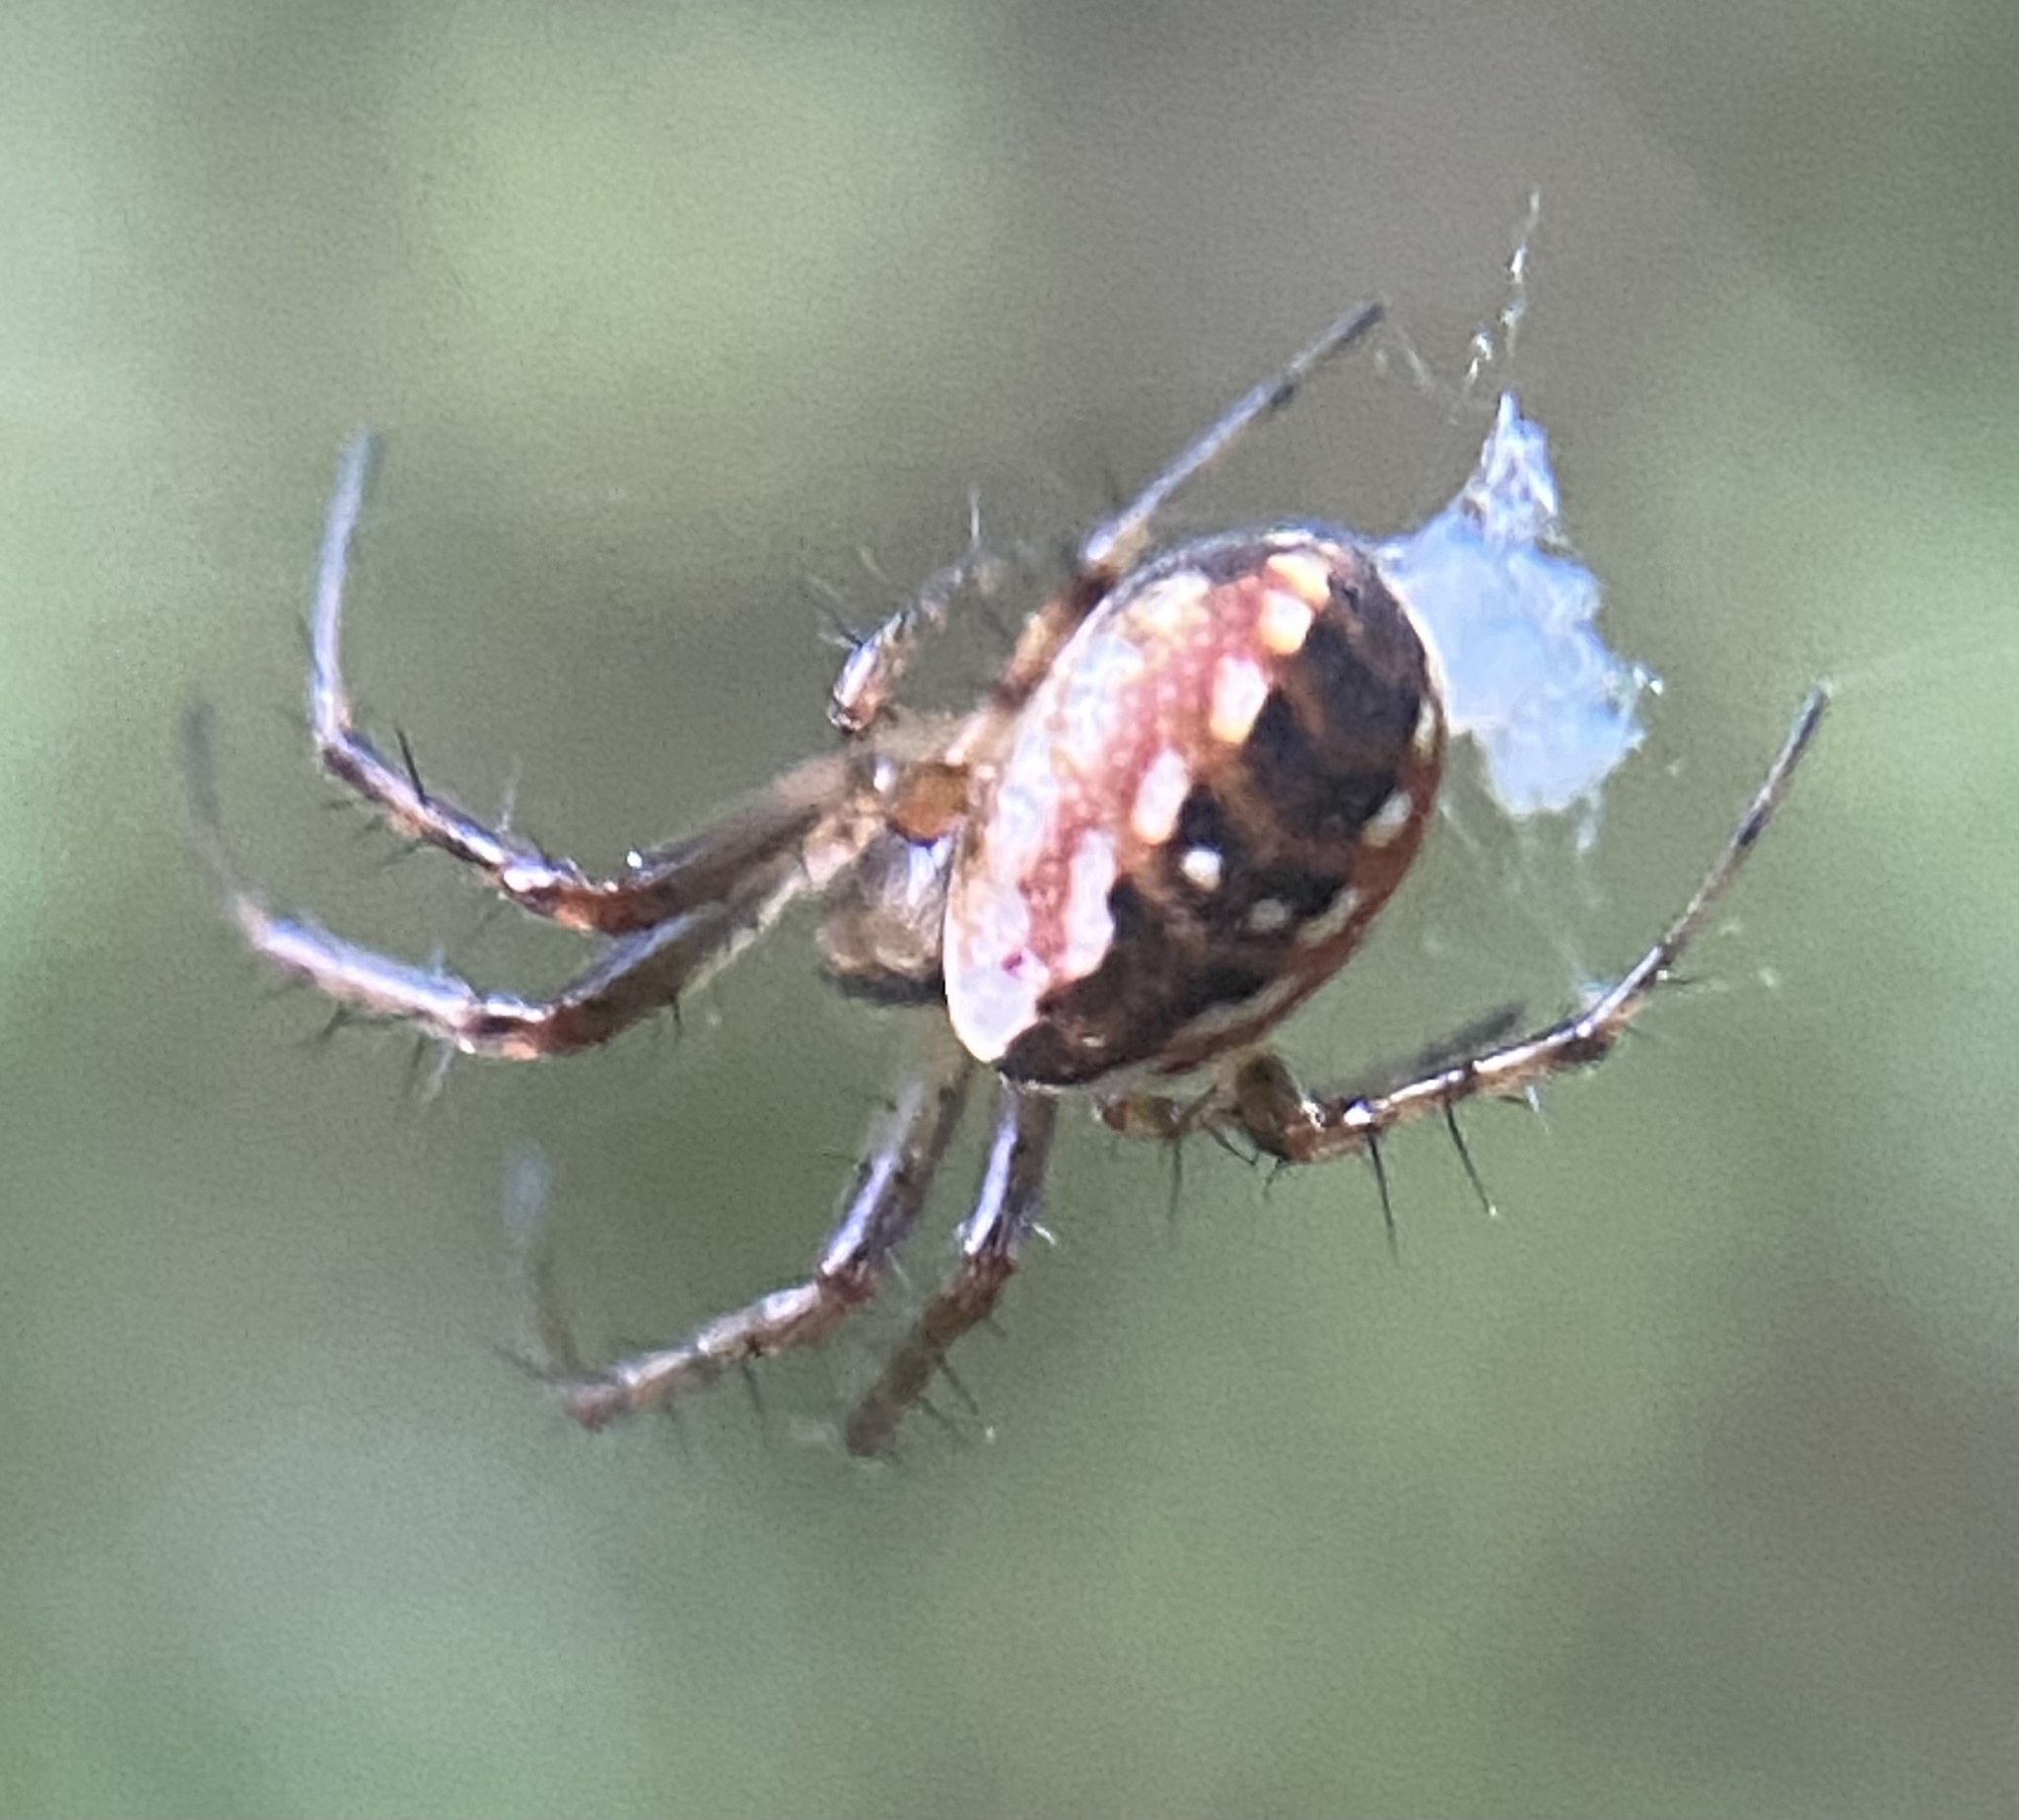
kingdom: Animalia
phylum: Arthropoda
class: Arachnida
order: Araneae
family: Araneidae
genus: Mangora
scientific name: Mangora placida
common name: Tuft-legged orbweaver
